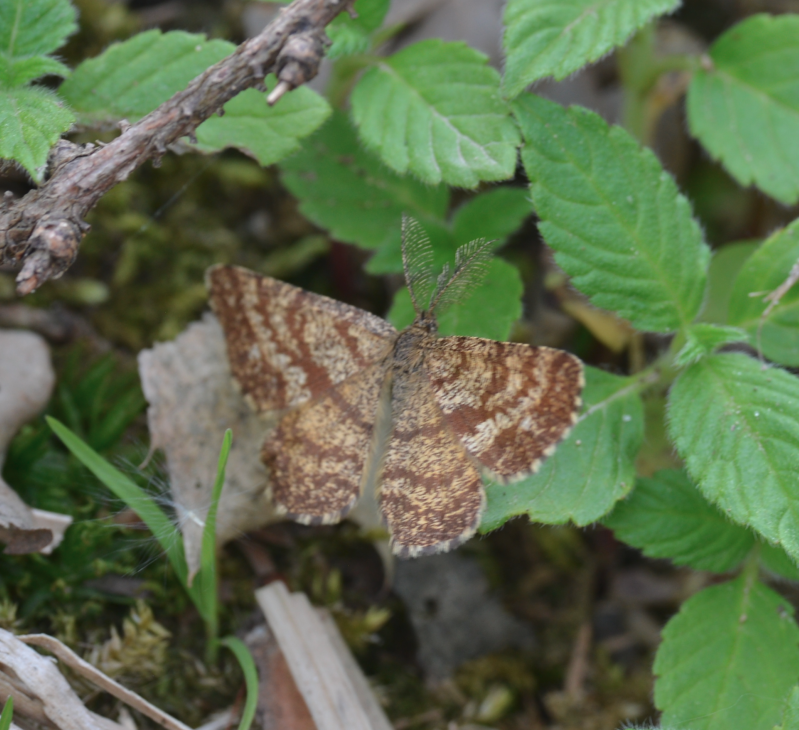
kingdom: Animalia
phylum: Arthropoda
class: Insecta
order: Lepidoptera
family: Geometridae
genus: Ematurga
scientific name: Ematurga atomaria
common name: Common heath
